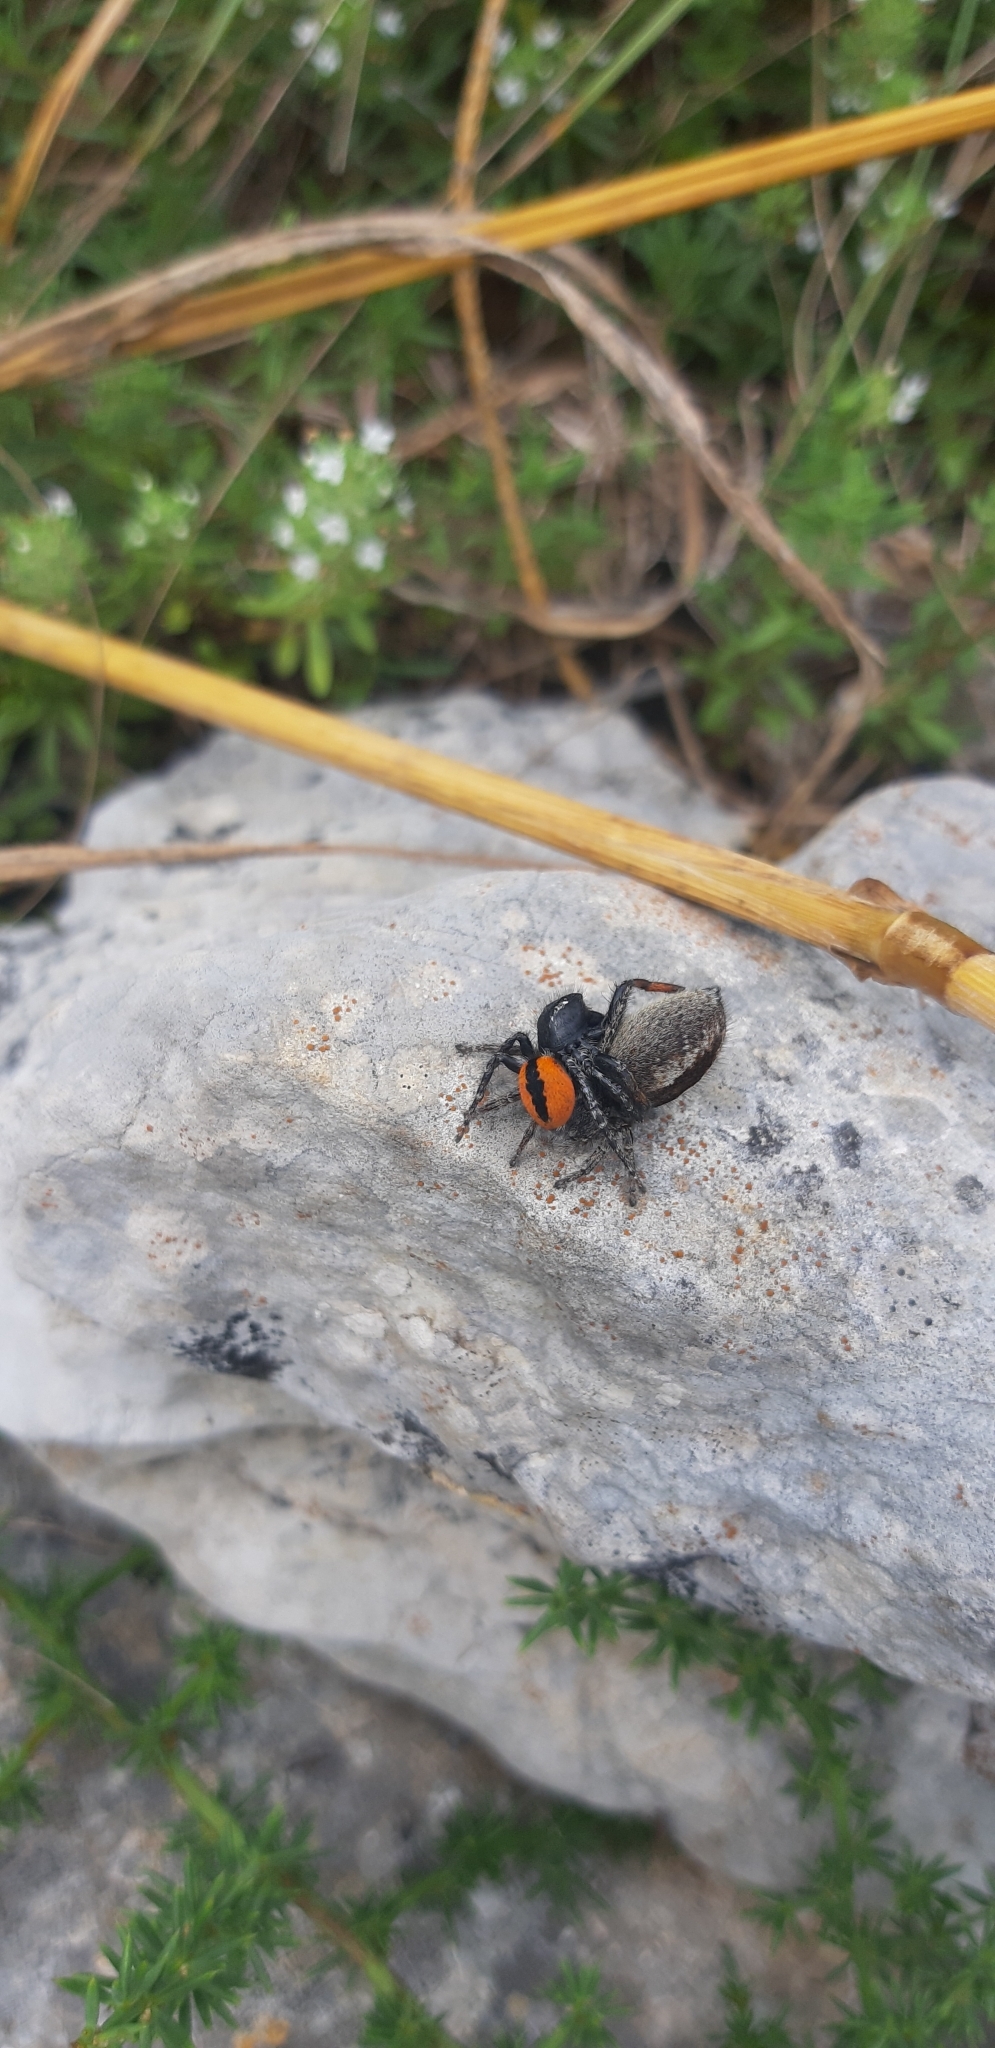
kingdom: Animalia
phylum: Arthropoda
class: Arachnida
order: Araneae
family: Salticidae
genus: Philaeus
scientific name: Philaeus chrysops
